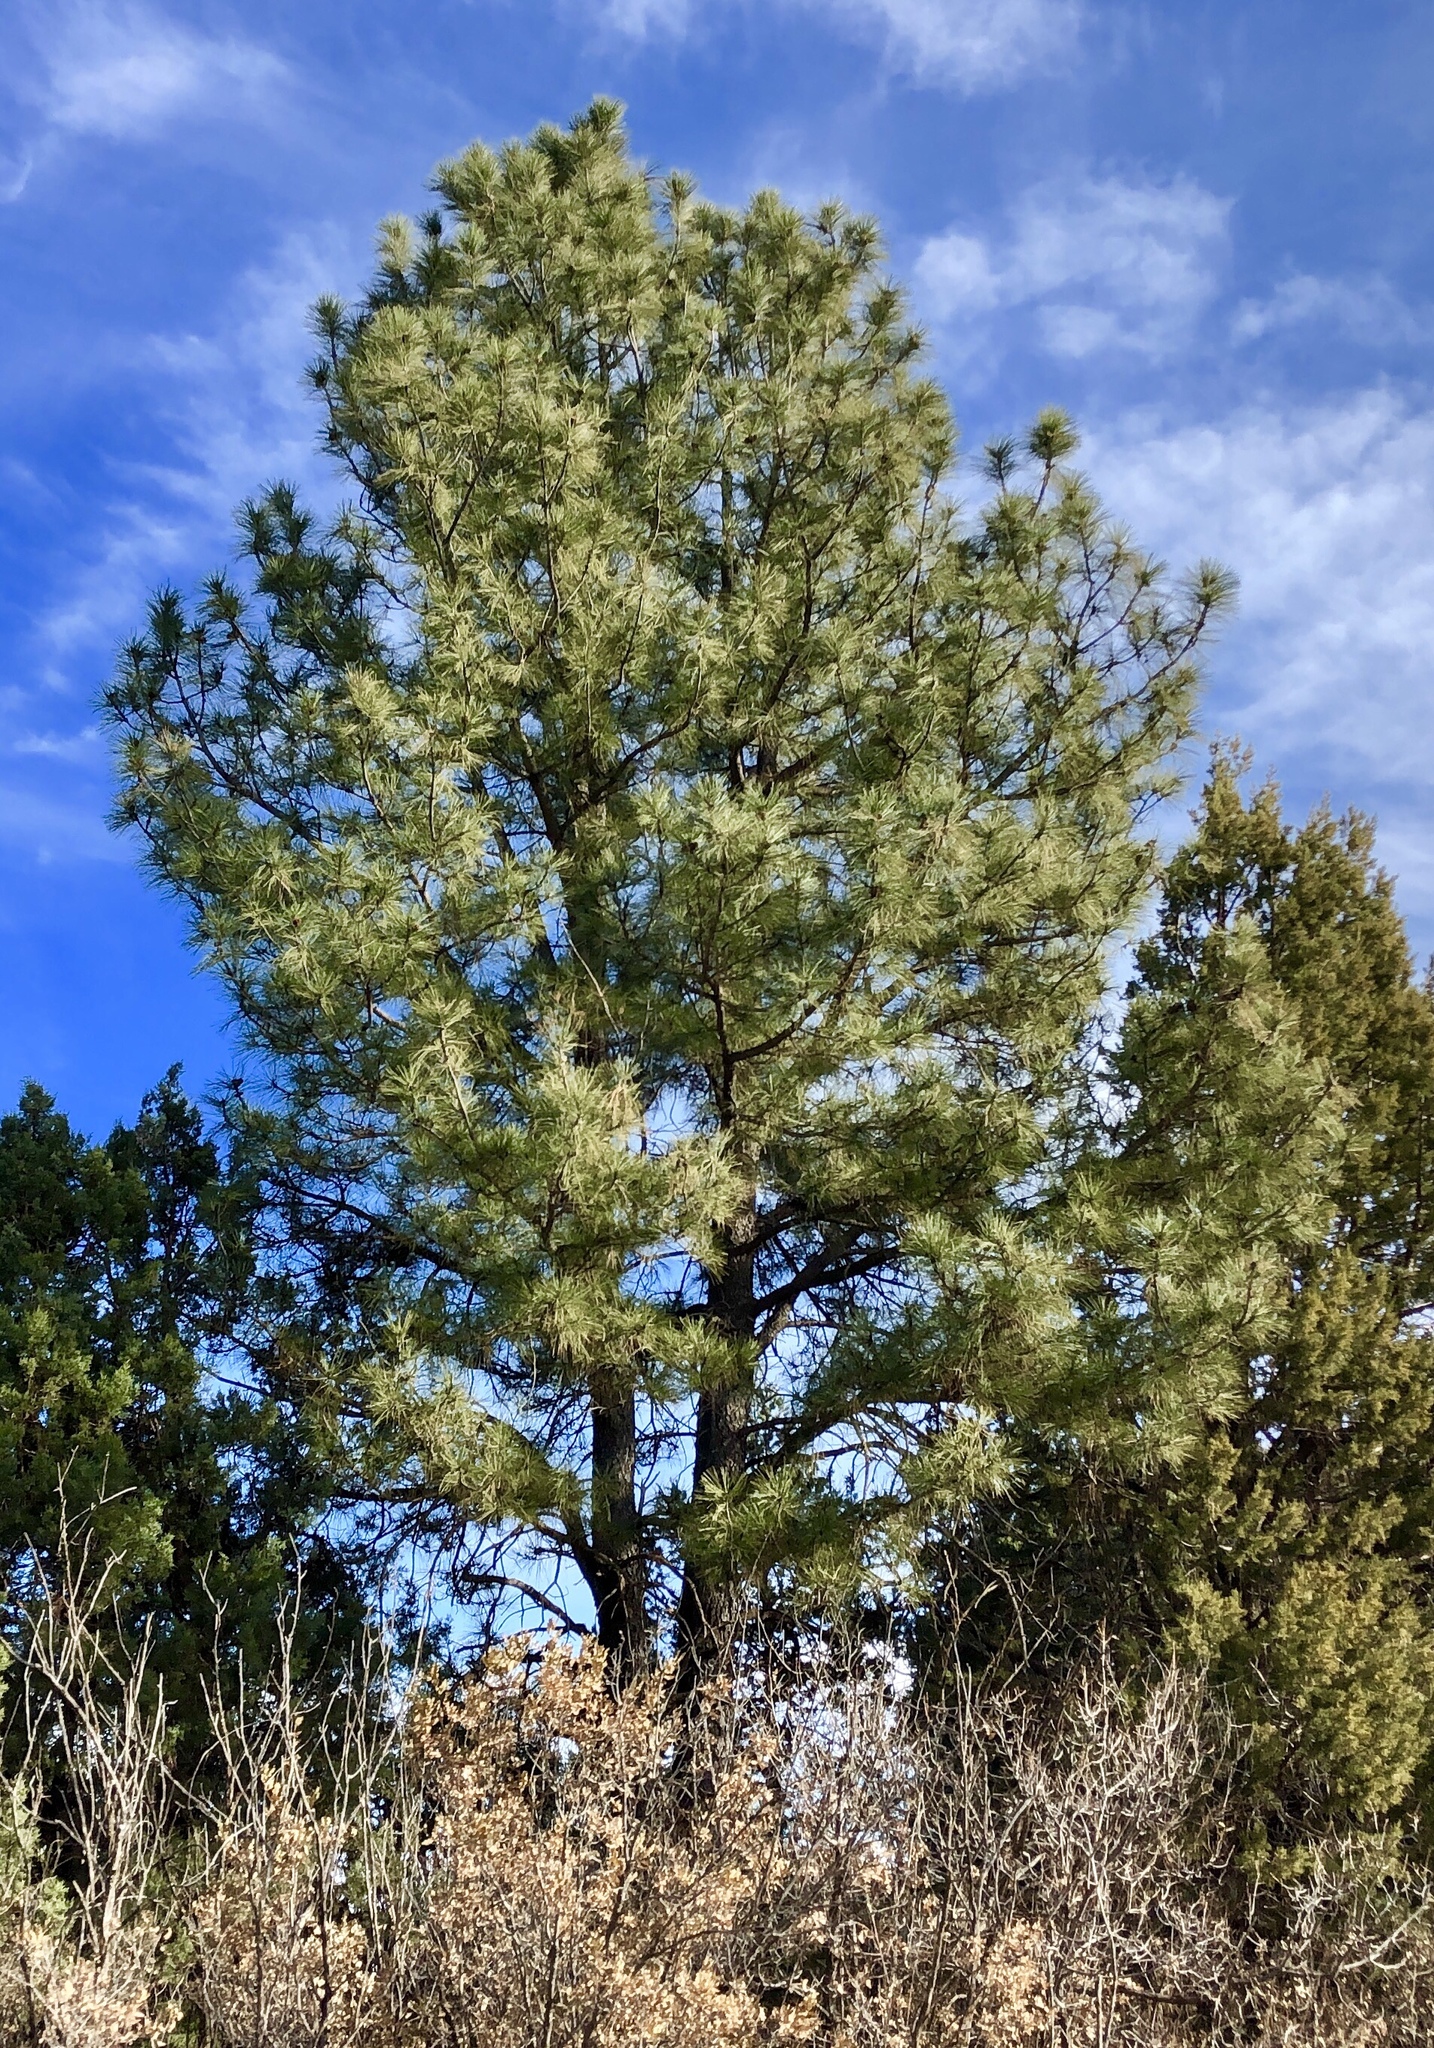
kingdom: Plantae
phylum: Tracheophyta
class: Pinopsida
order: Pinales
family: Pinaceae
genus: Pinus
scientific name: Pinus ponderosa
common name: Western yellow-pine
